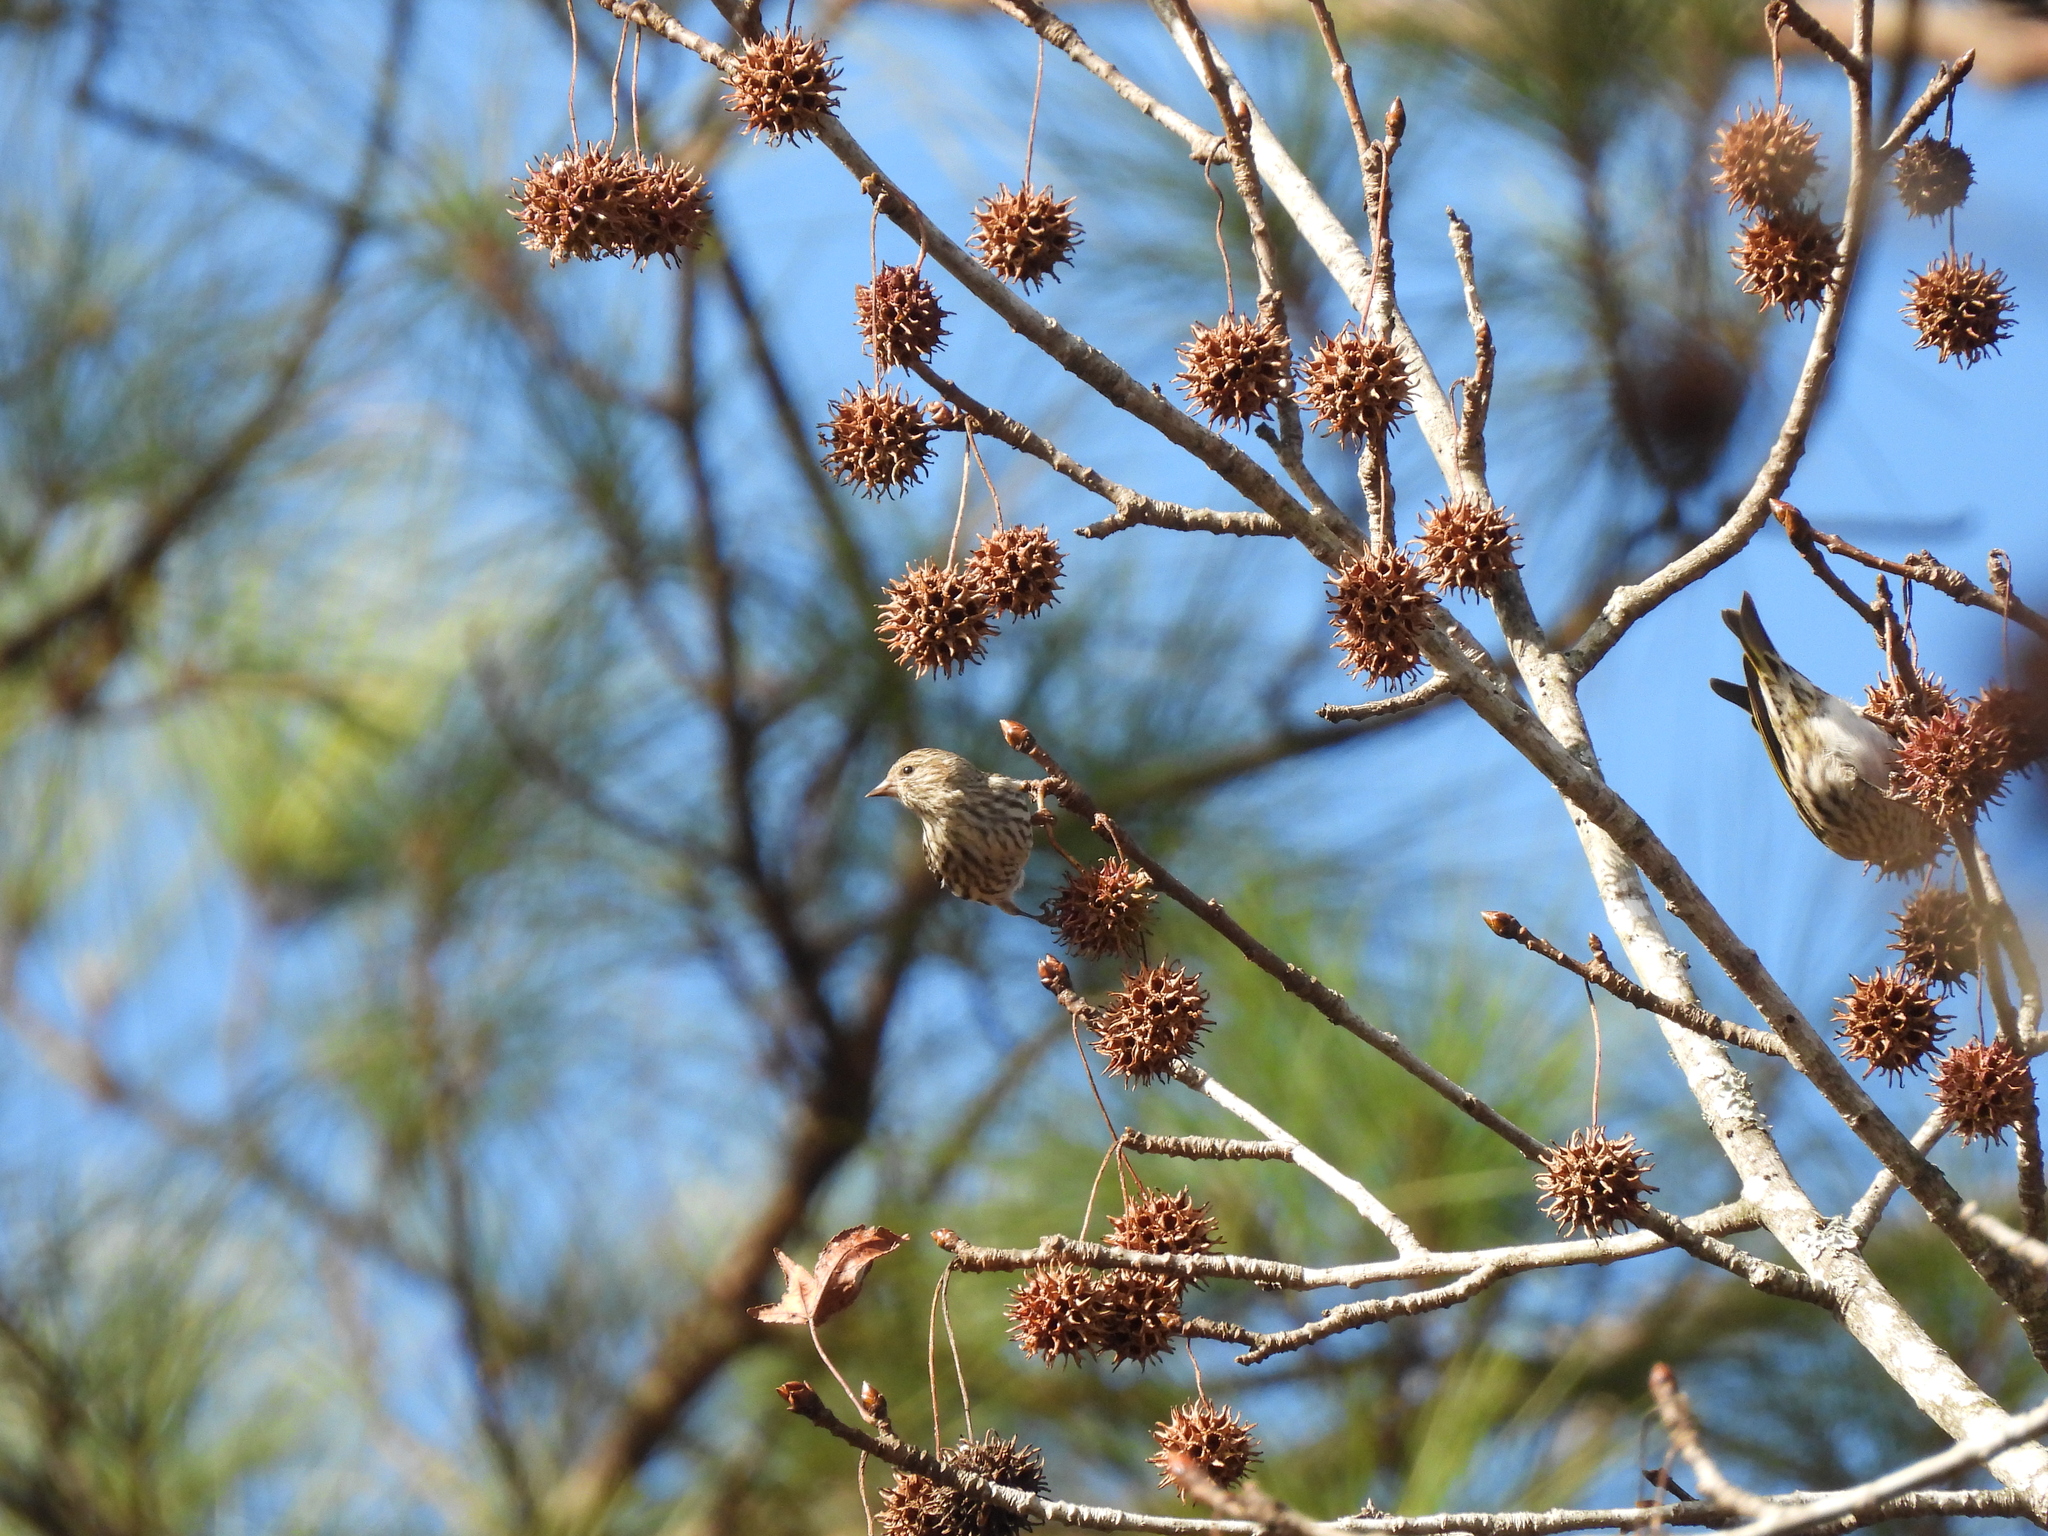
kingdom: Animalia
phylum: Chordata
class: Aves
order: Passeriformes
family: Fringillidae
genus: Spinus
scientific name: Spinus pinus
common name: Pine siskin
